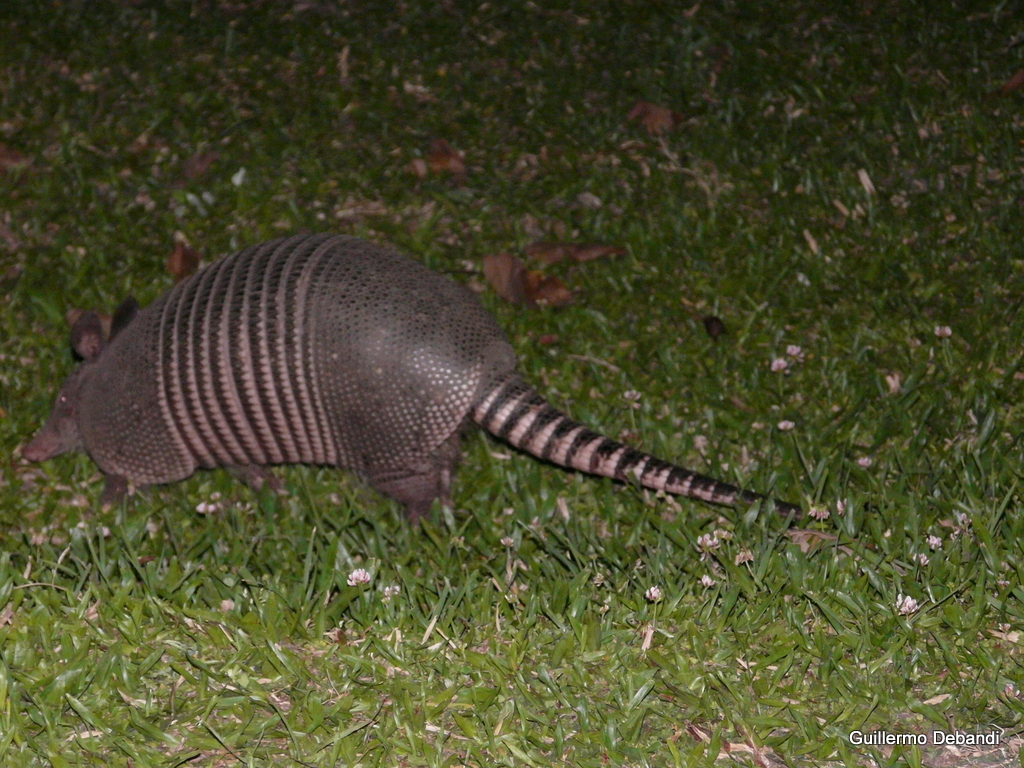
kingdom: Animalia
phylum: Chordata
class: Mammalia
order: Cingulata
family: Dasypodidae
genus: Dasypus
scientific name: Dasypus novemcinctus
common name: Nine-banded armadillo
